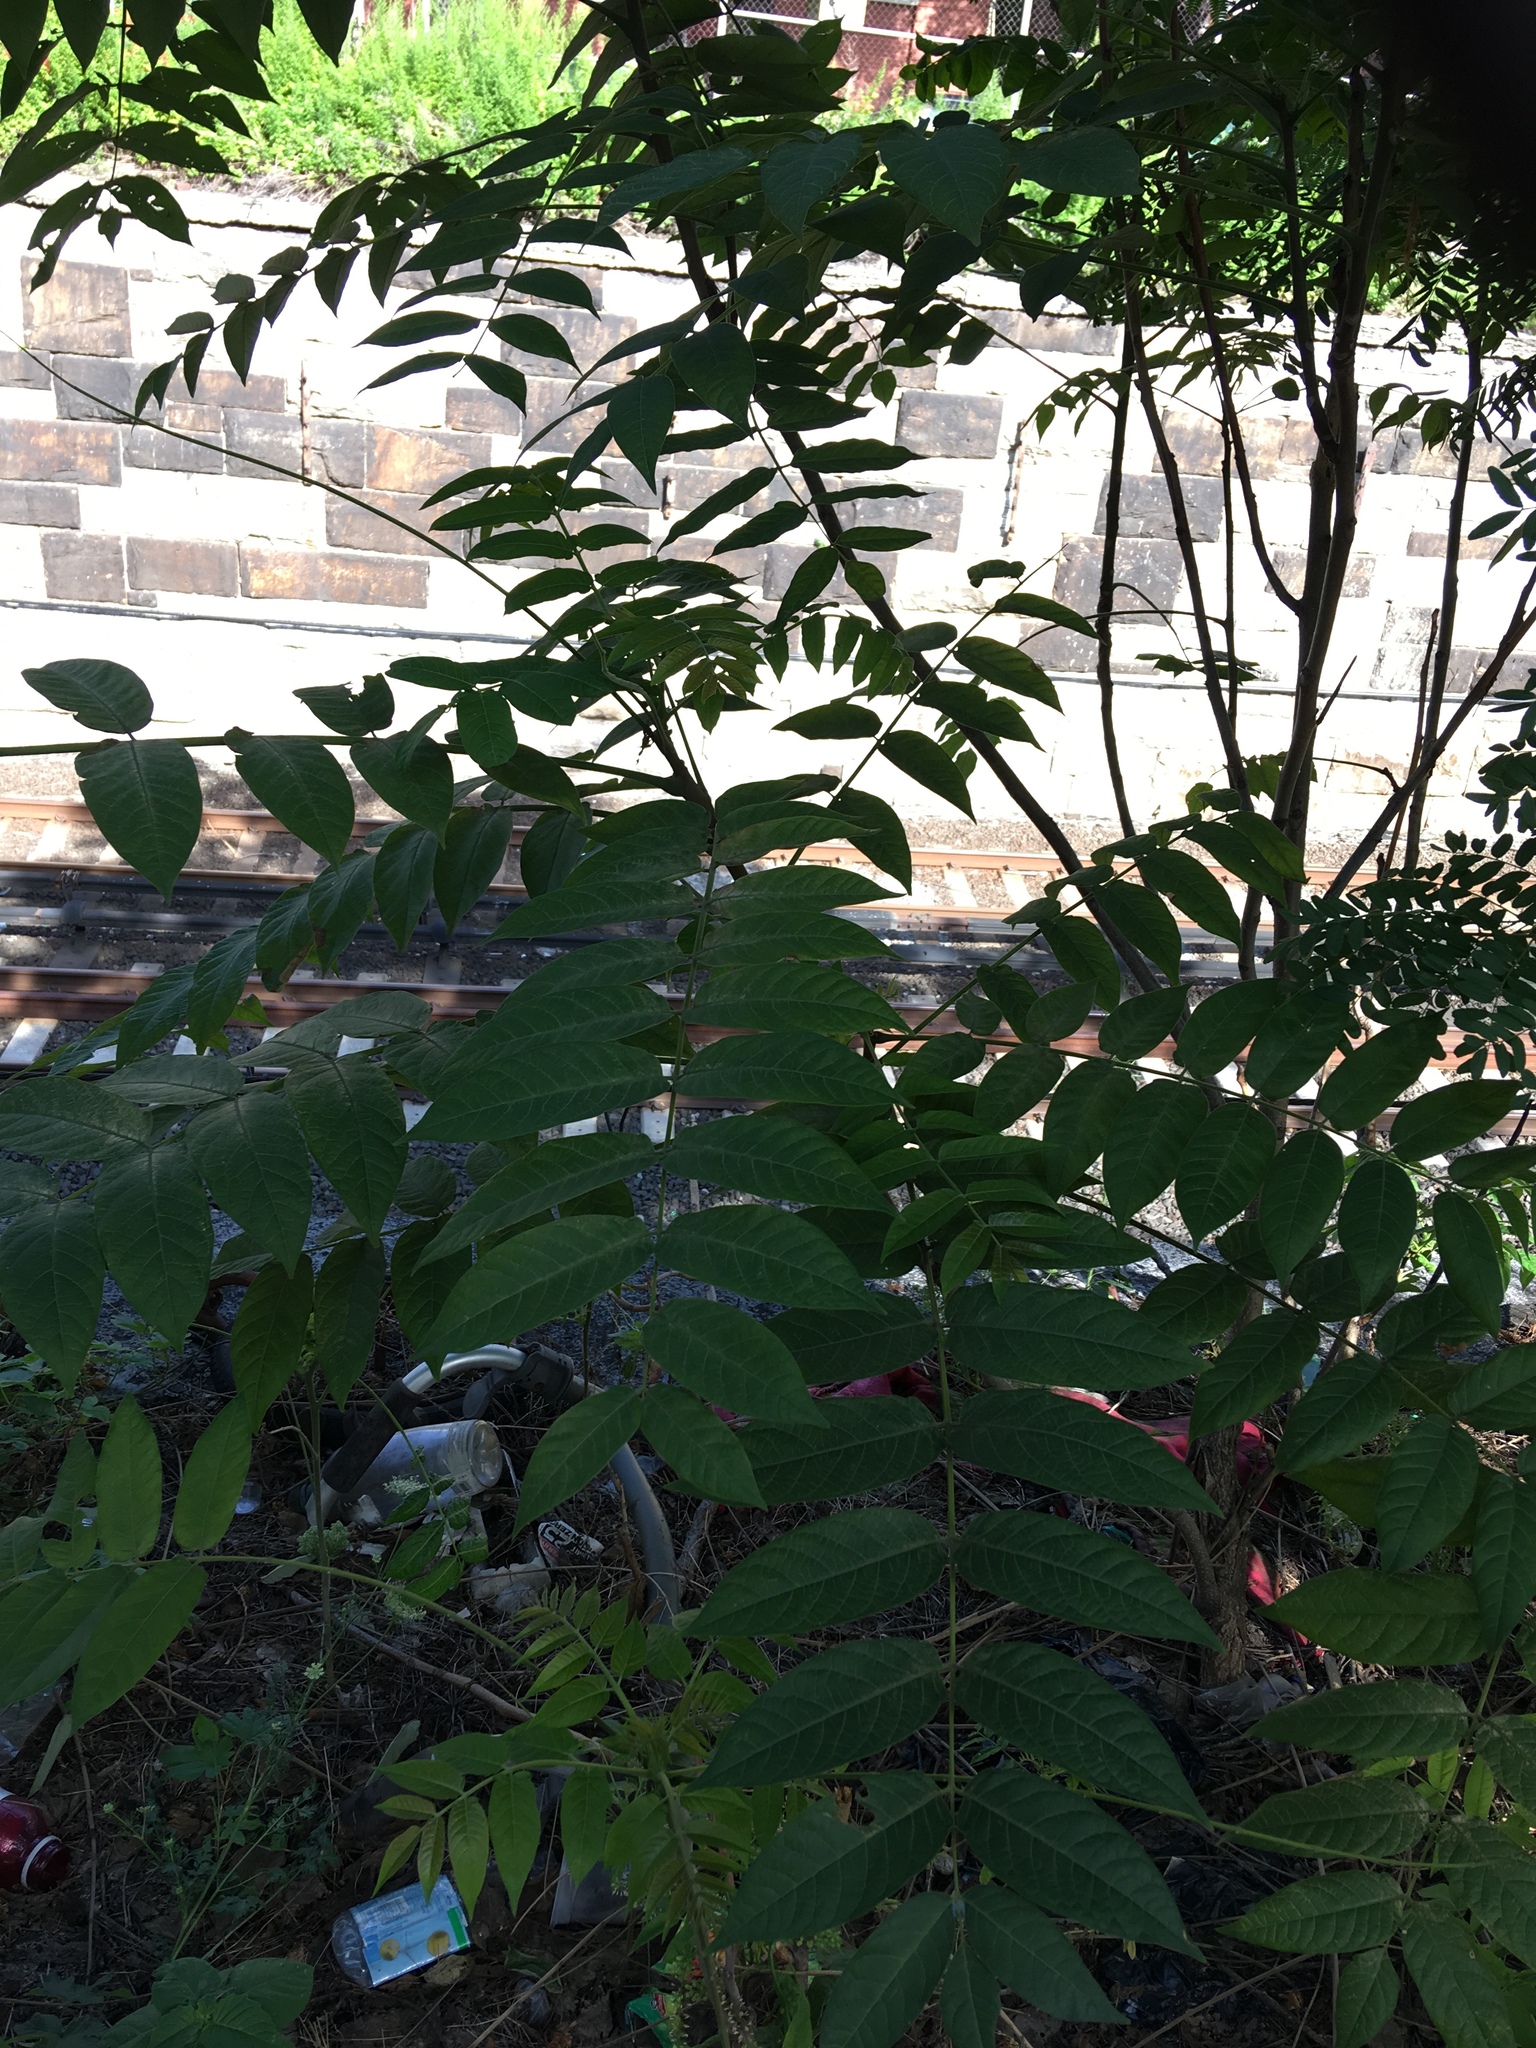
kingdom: Plantae
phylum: Tracheophyta
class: Magnoliopsida
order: Sapindales
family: Simaroubaceae
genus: Ailanthus
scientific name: Ailanthus altissima
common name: Tree-of-heaven
